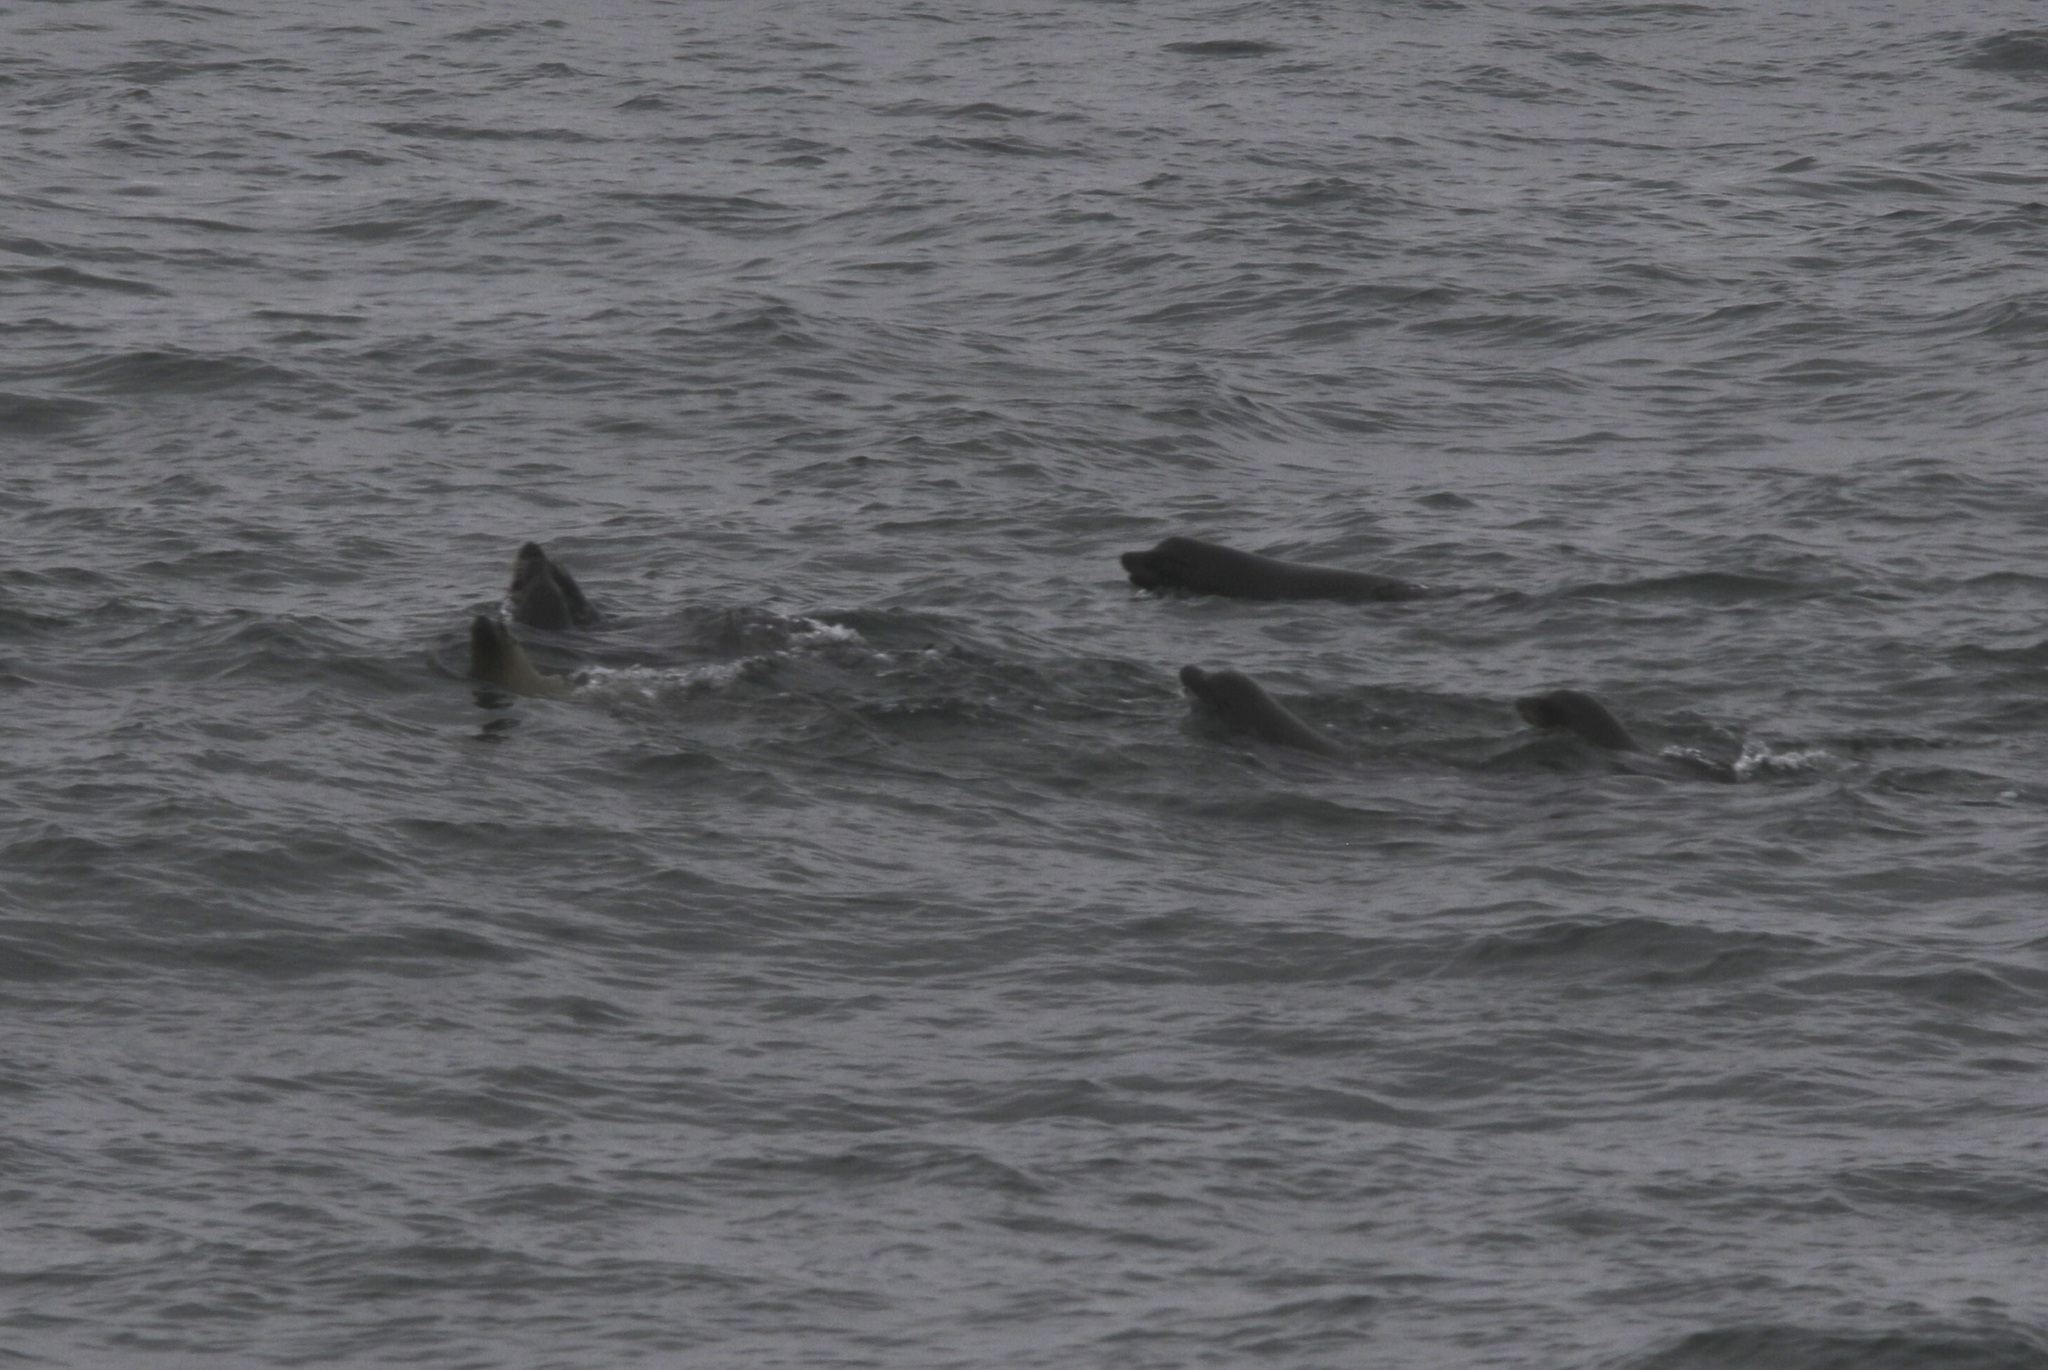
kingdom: Animalia
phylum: Chordata
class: Mammalia
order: Carnivora
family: Otariidae
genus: Zalophus
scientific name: Zalophus californianus
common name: California sea lion
